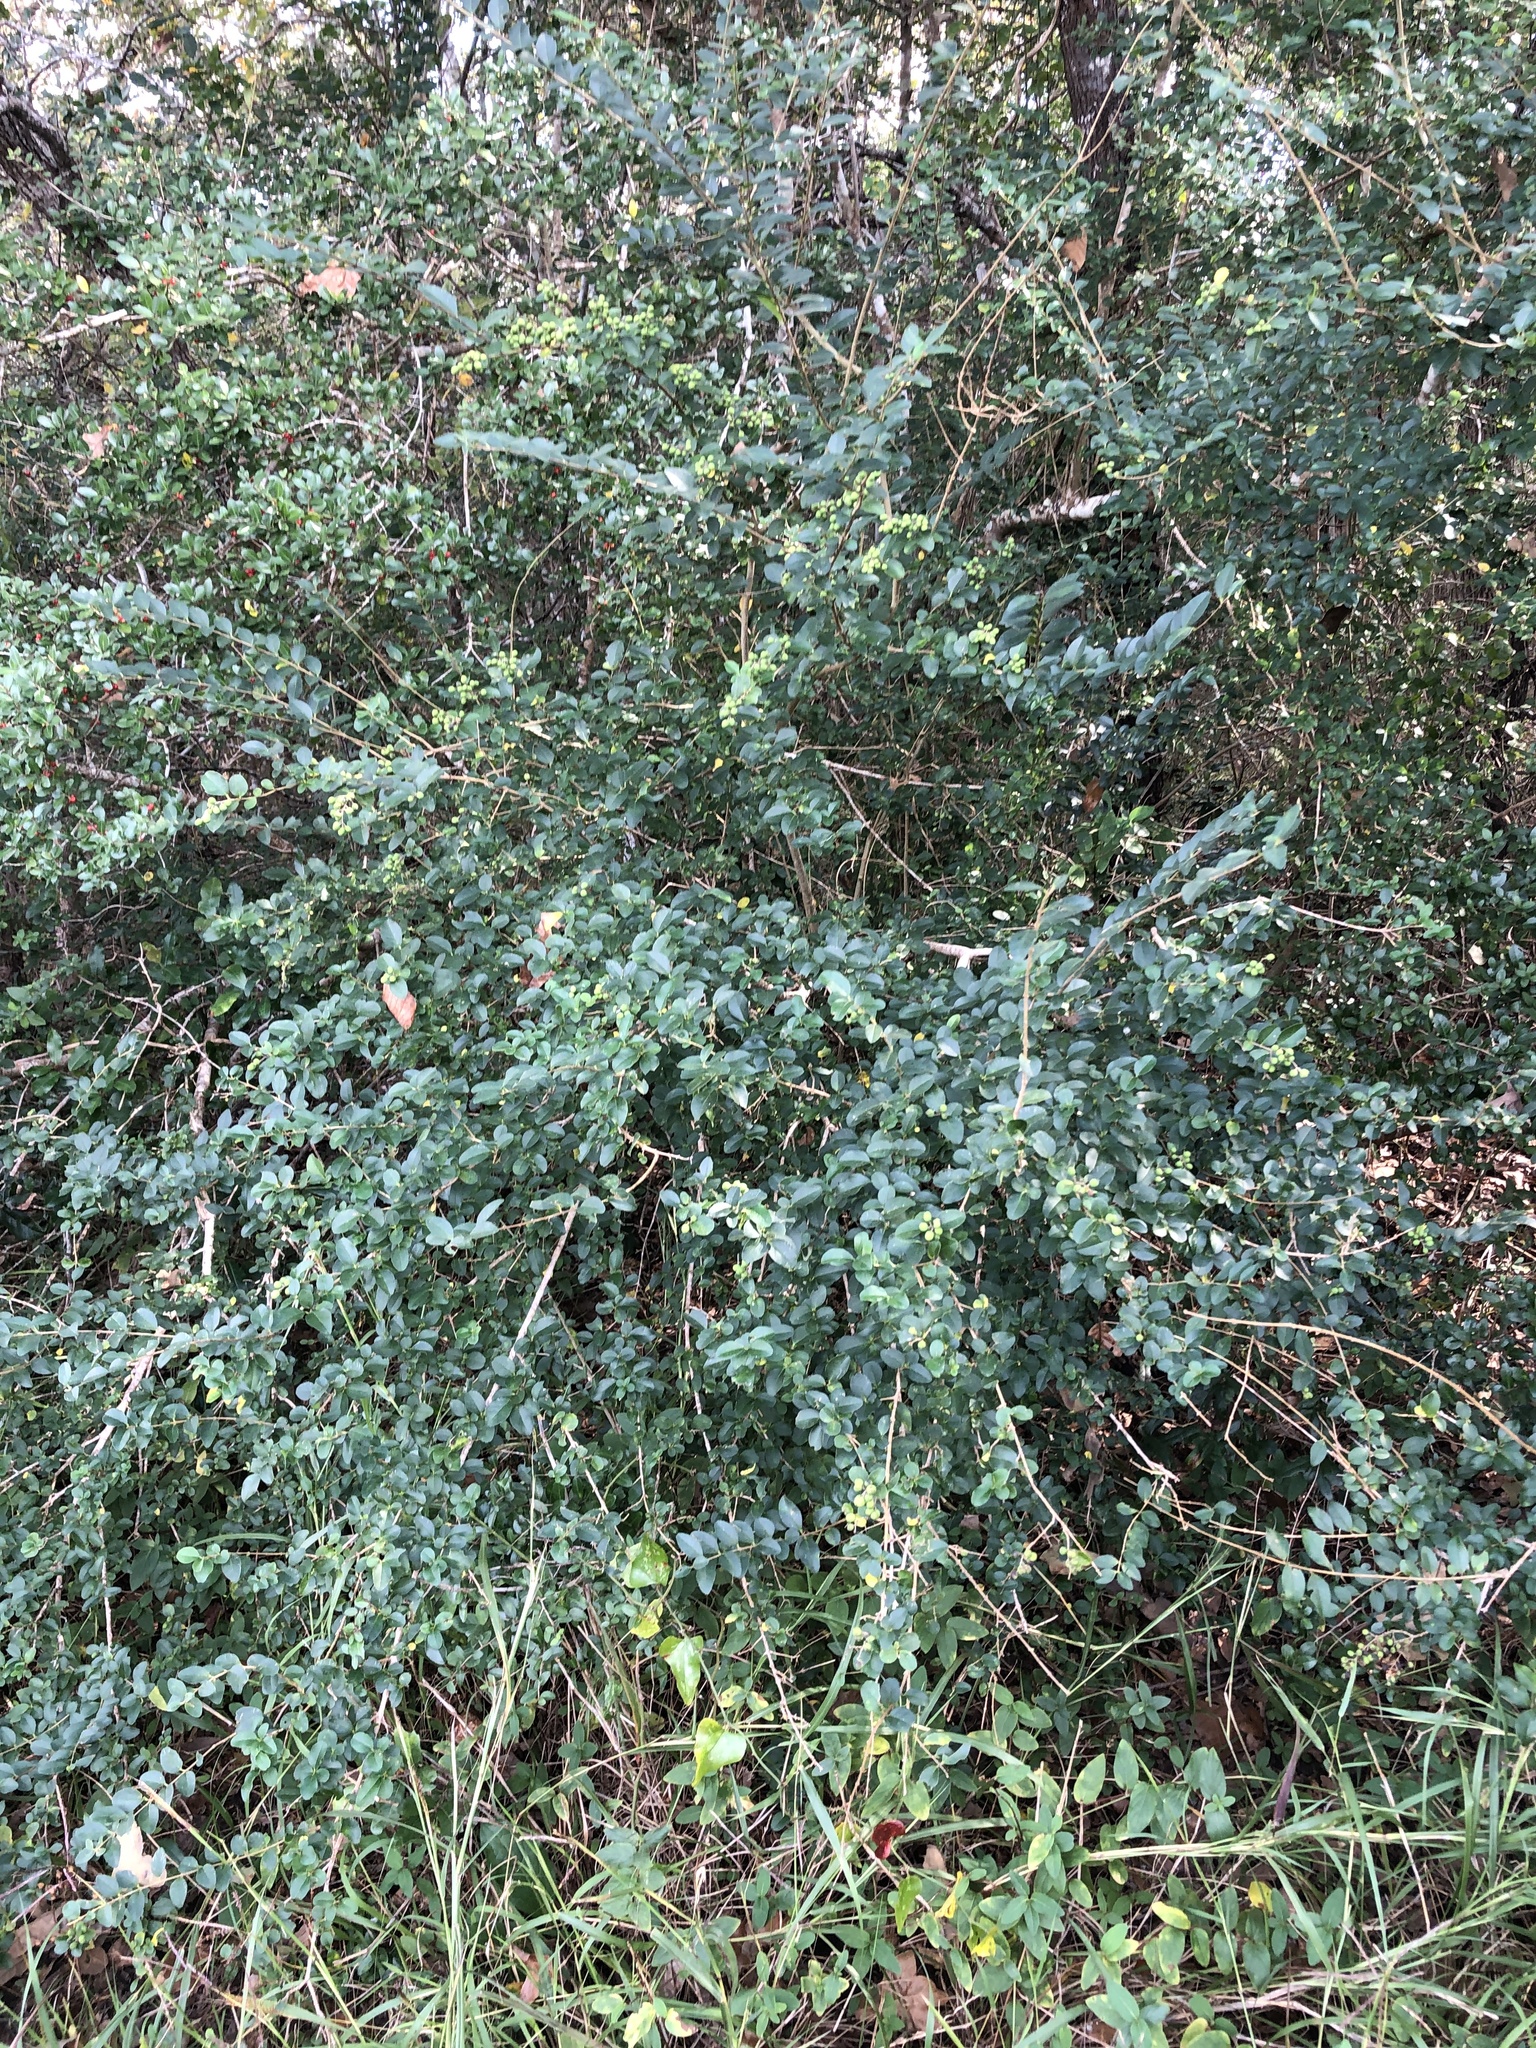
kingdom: Plantae
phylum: Tracheophyta
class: Magnoliopsida
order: Lamiales
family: Oleaceae
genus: Ligustrum
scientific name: Ligustrum sinense
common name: Chinese privet
